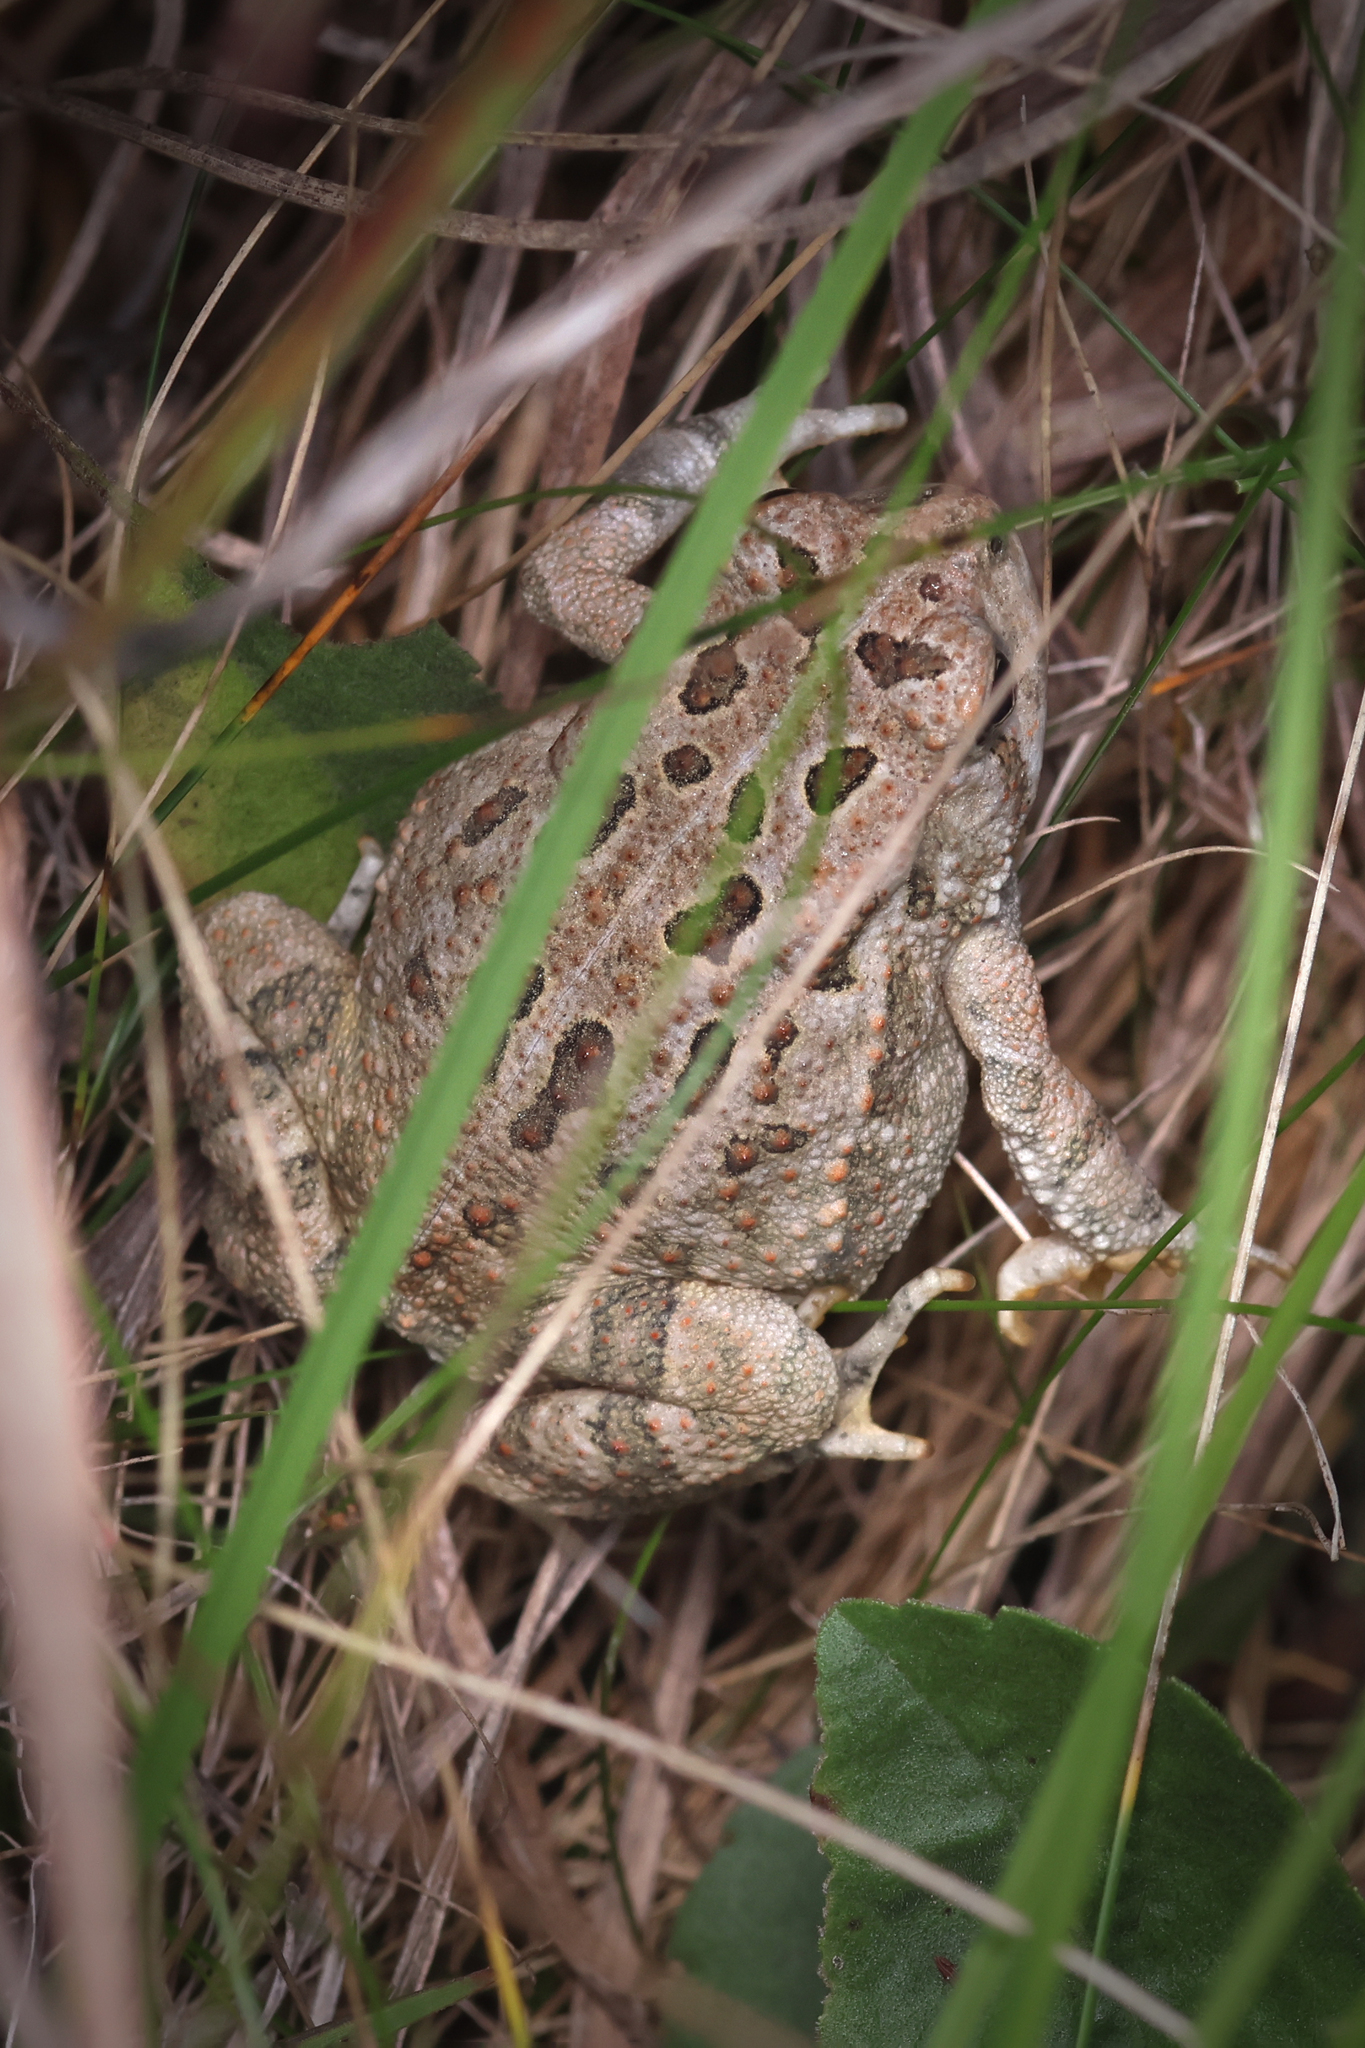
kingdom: Animalia
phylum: Chordata
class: Amphibia
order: Anura
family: Bufonidae
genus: Anaxyrus
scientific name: Anaxyrus fowleri
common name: Fowler's toad
